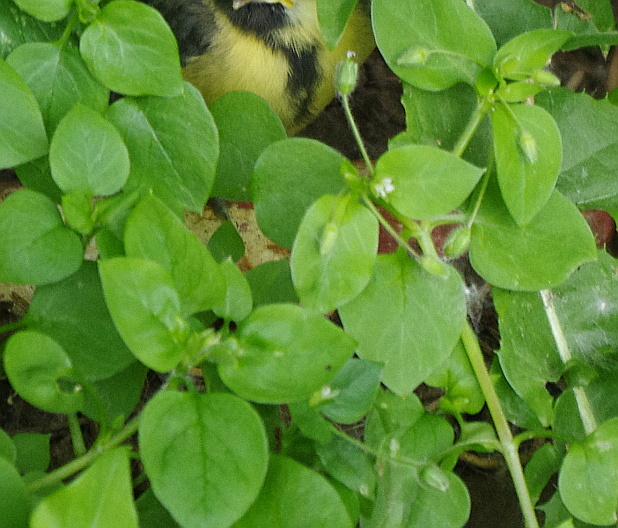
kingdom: Plantae
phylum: Tracheophyta
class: Magnoliopsida
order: Caryophyllales
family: Caryophyllaceae
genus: Stellaria
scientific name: Stellaria media
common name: Common chickweed
